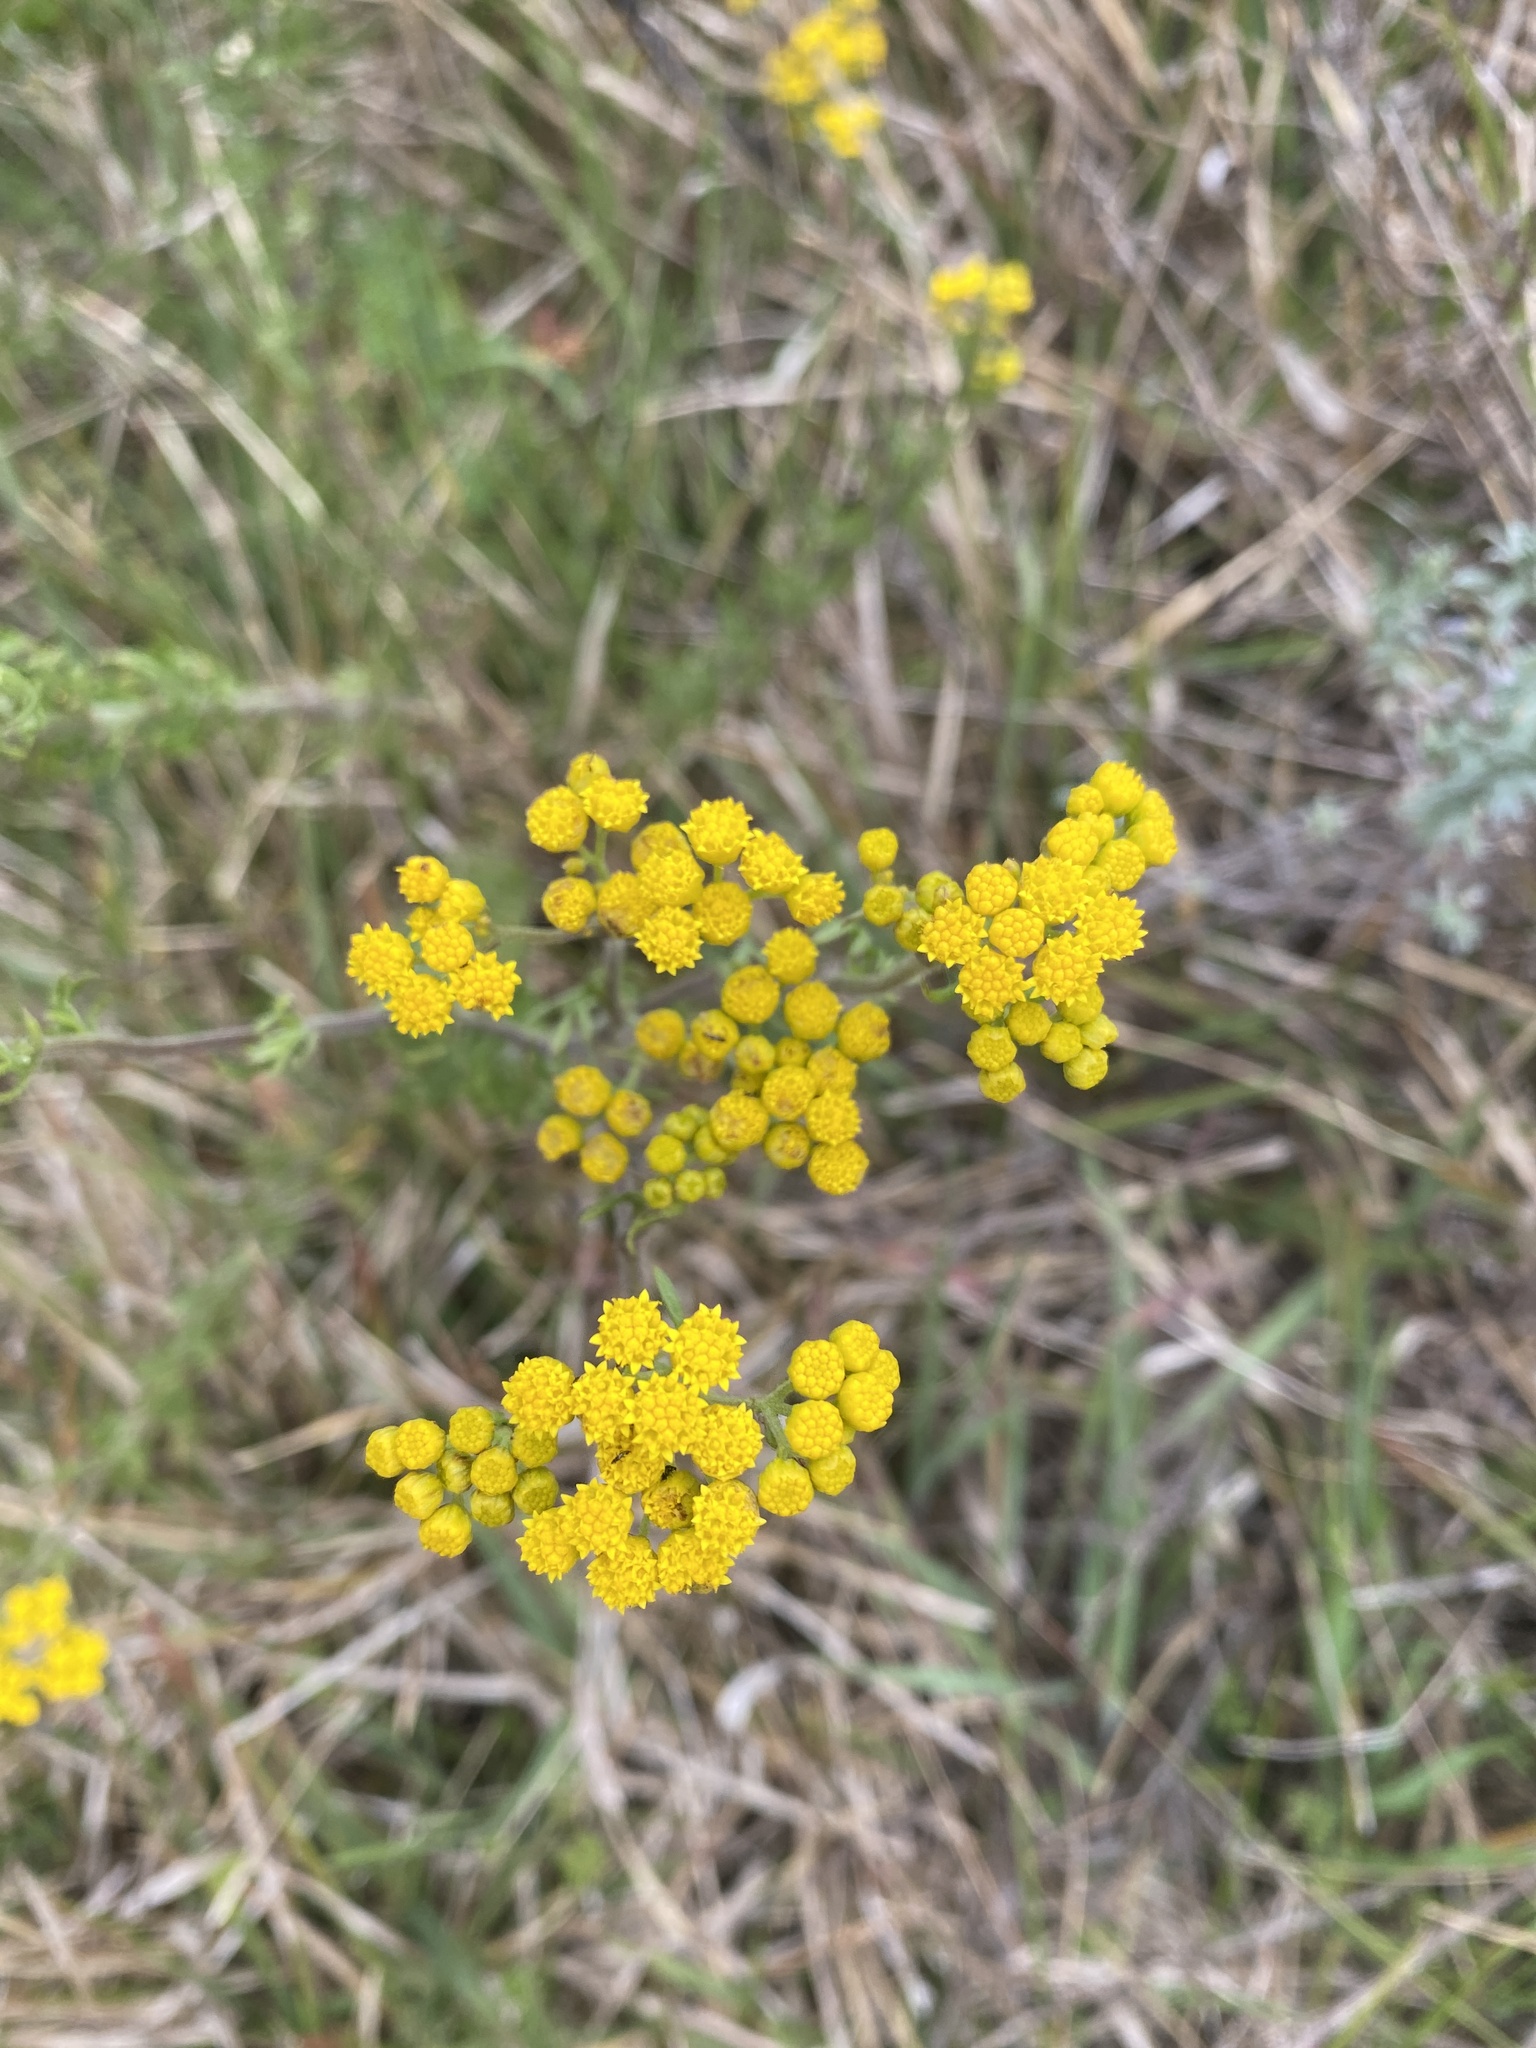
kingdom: Plantae
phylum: Tracheophyta
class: Magnoliopsida
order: Asterales
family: Asteraceae
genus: Hippia
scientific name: Hippia frutescens
